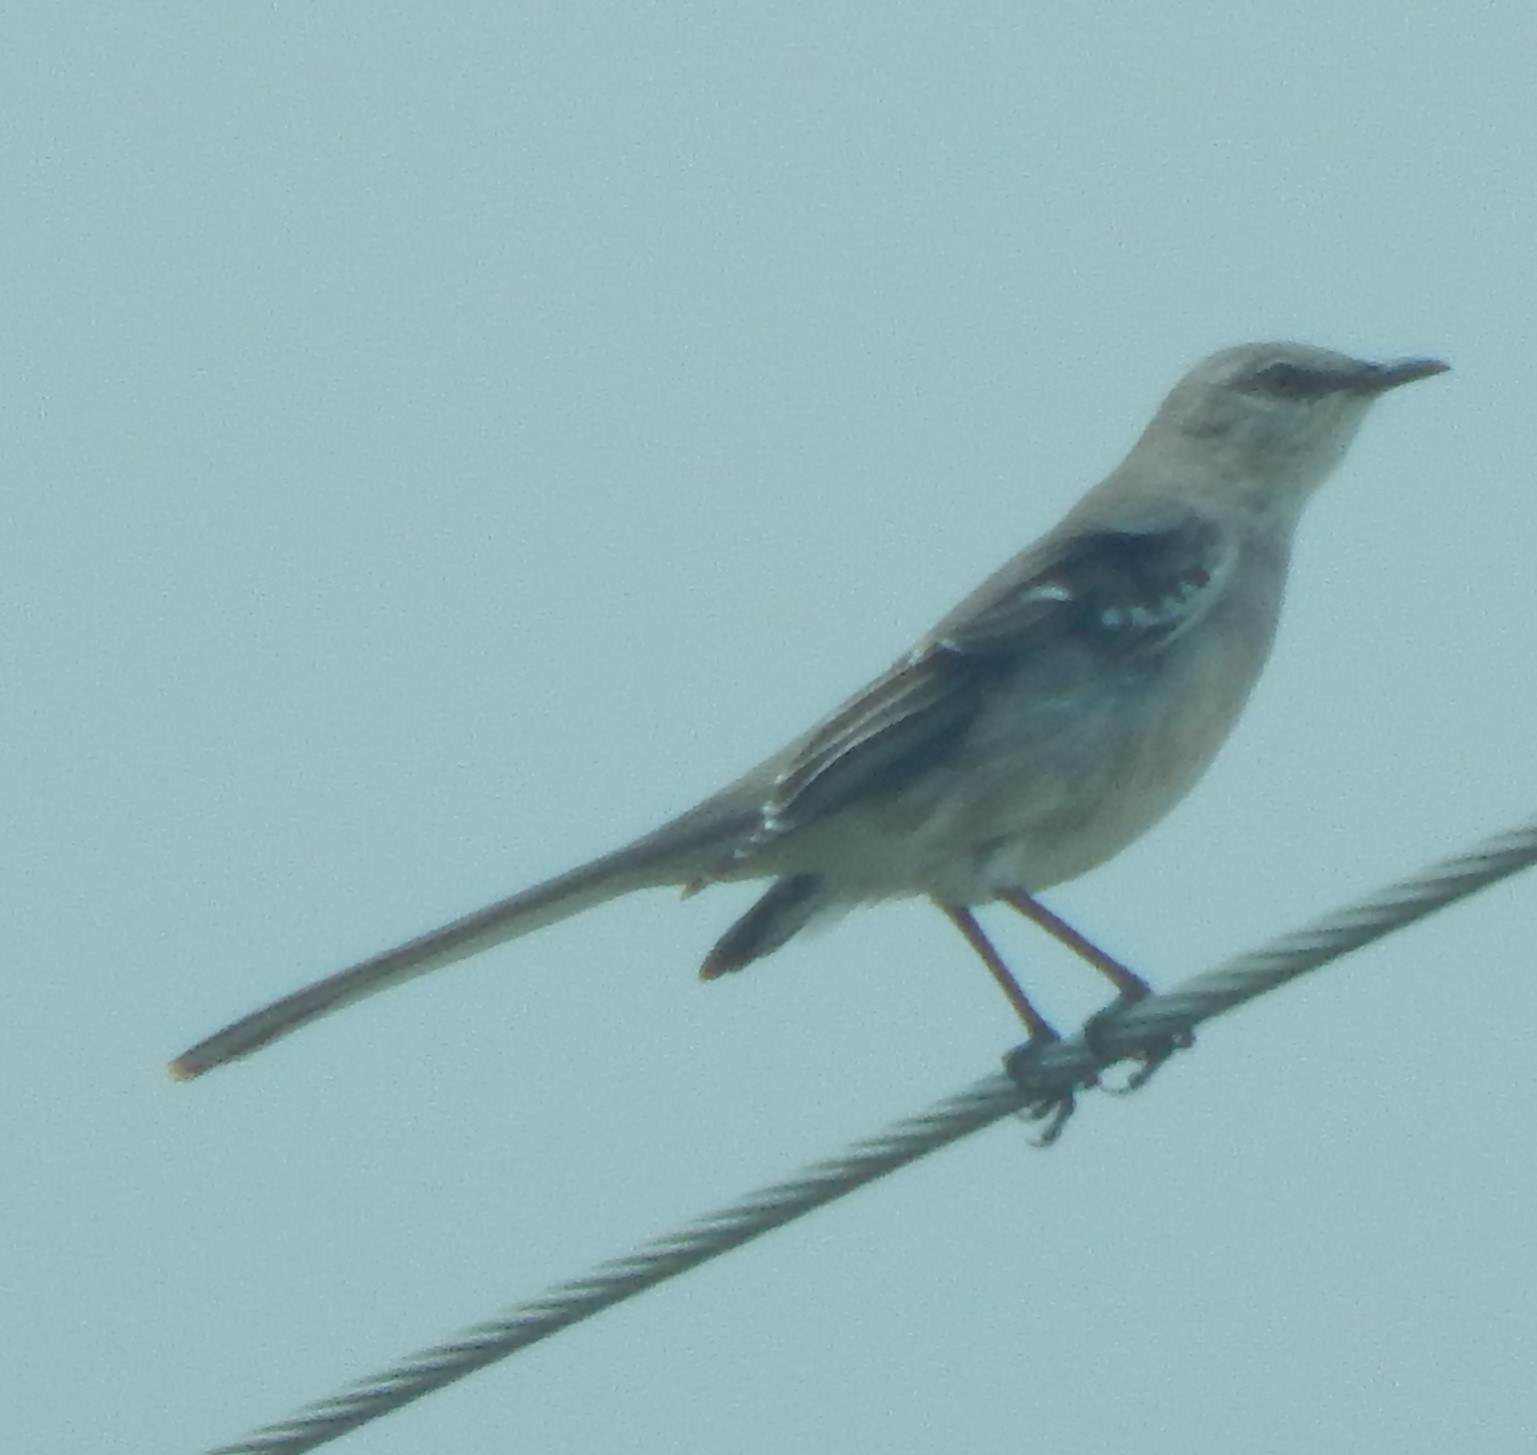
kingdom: Animalia
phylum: Chordata
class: Aves
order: Passeriformes
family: Mimidae
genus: Mimus
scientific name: Mimus polyglottos
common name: Northern mockingbird
